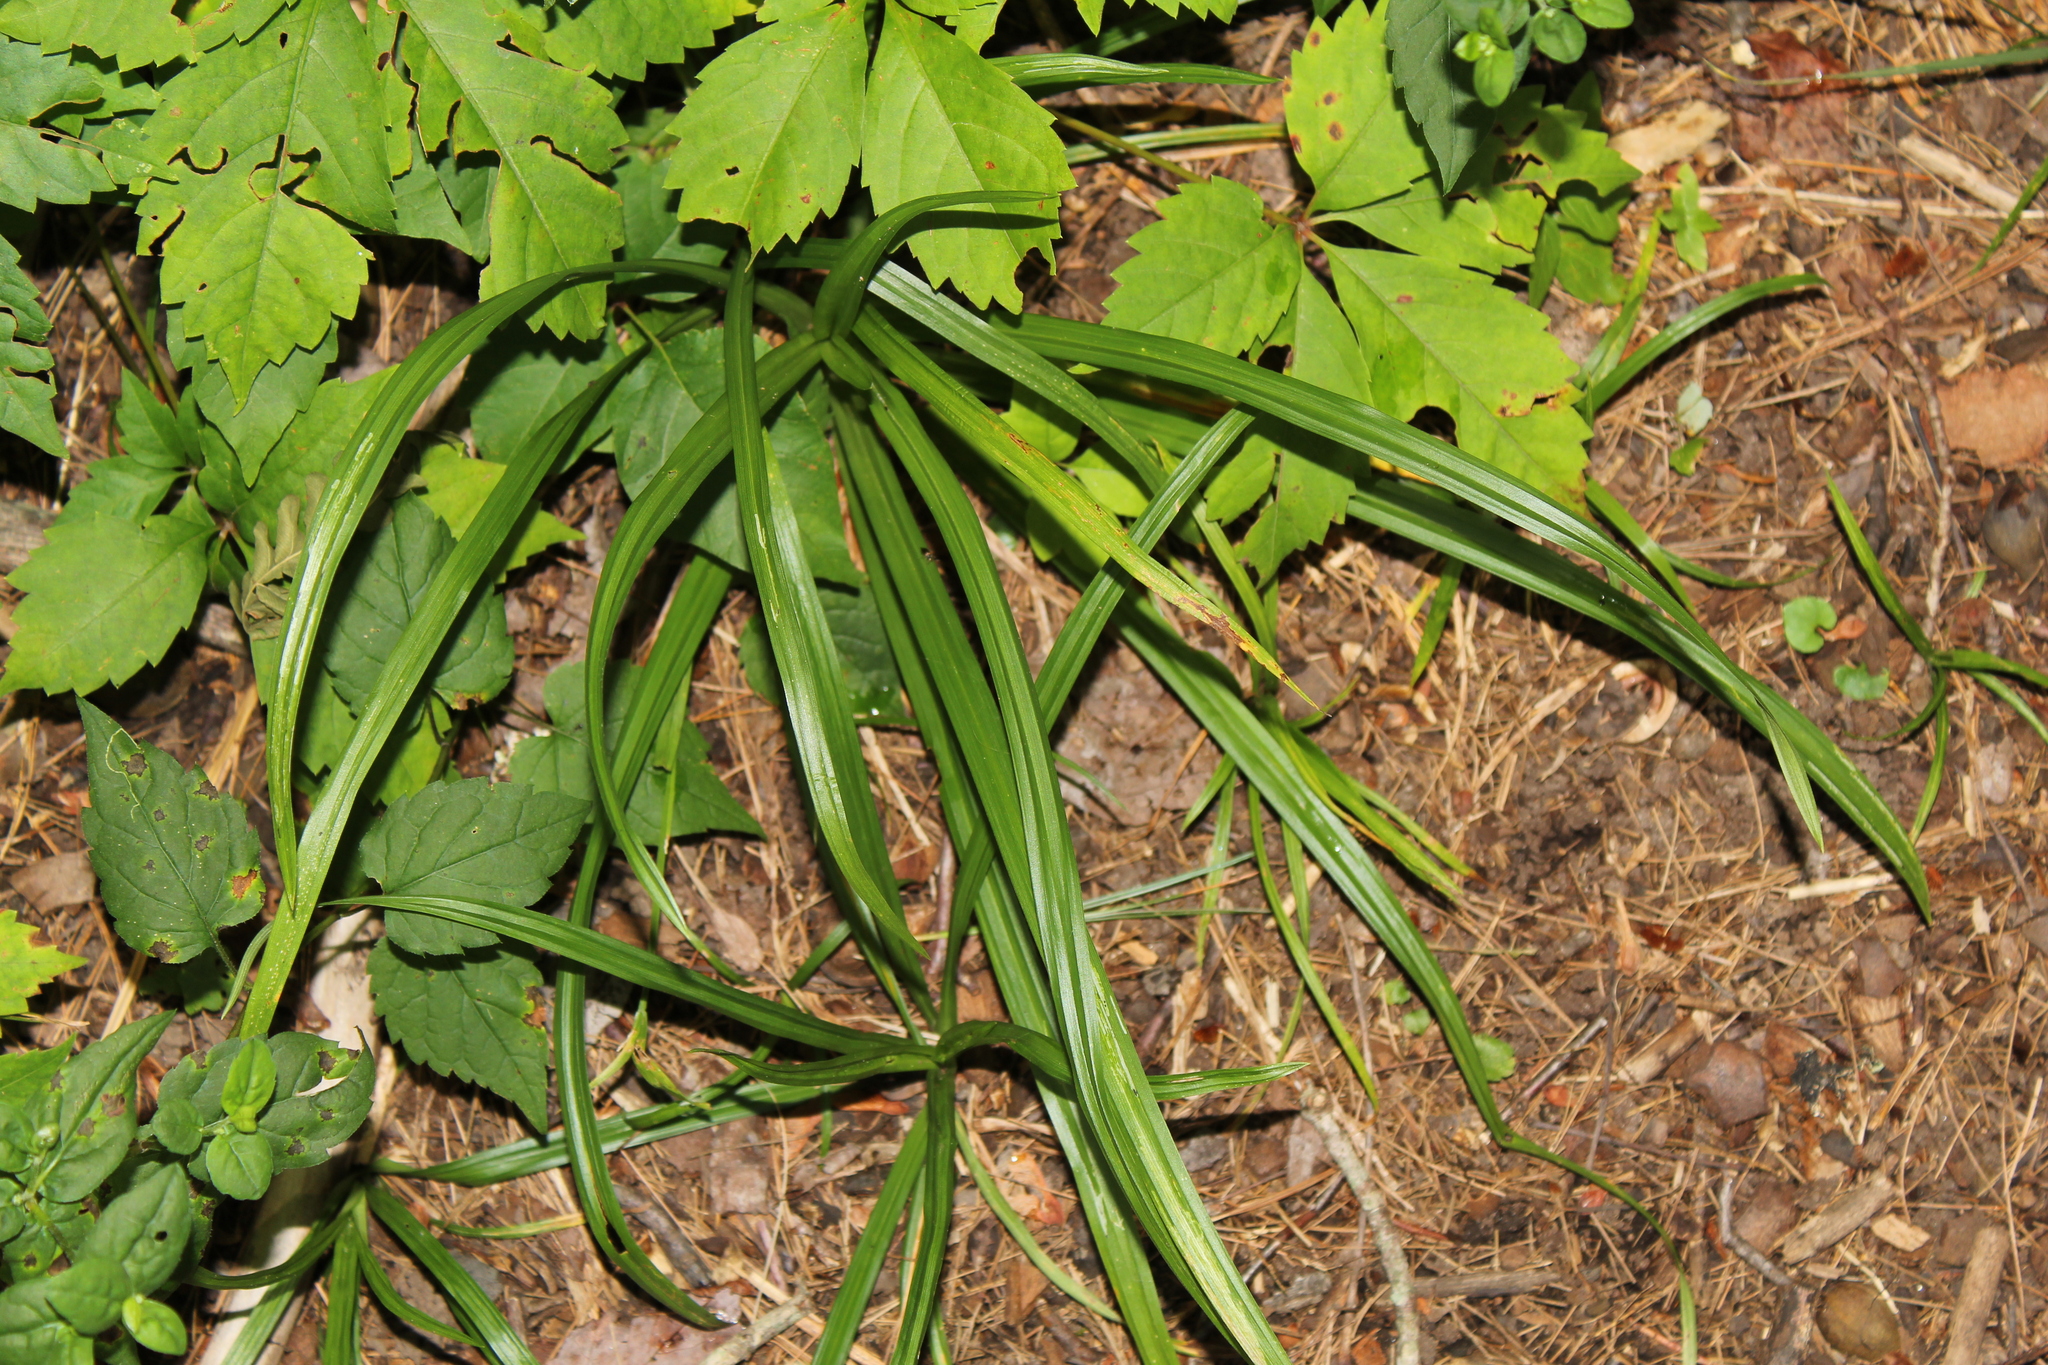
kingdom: Plantae
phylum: Tracheophyta
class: Liliopsida
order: Poales
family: Cyperaceae
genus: Carex
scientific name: Carex
